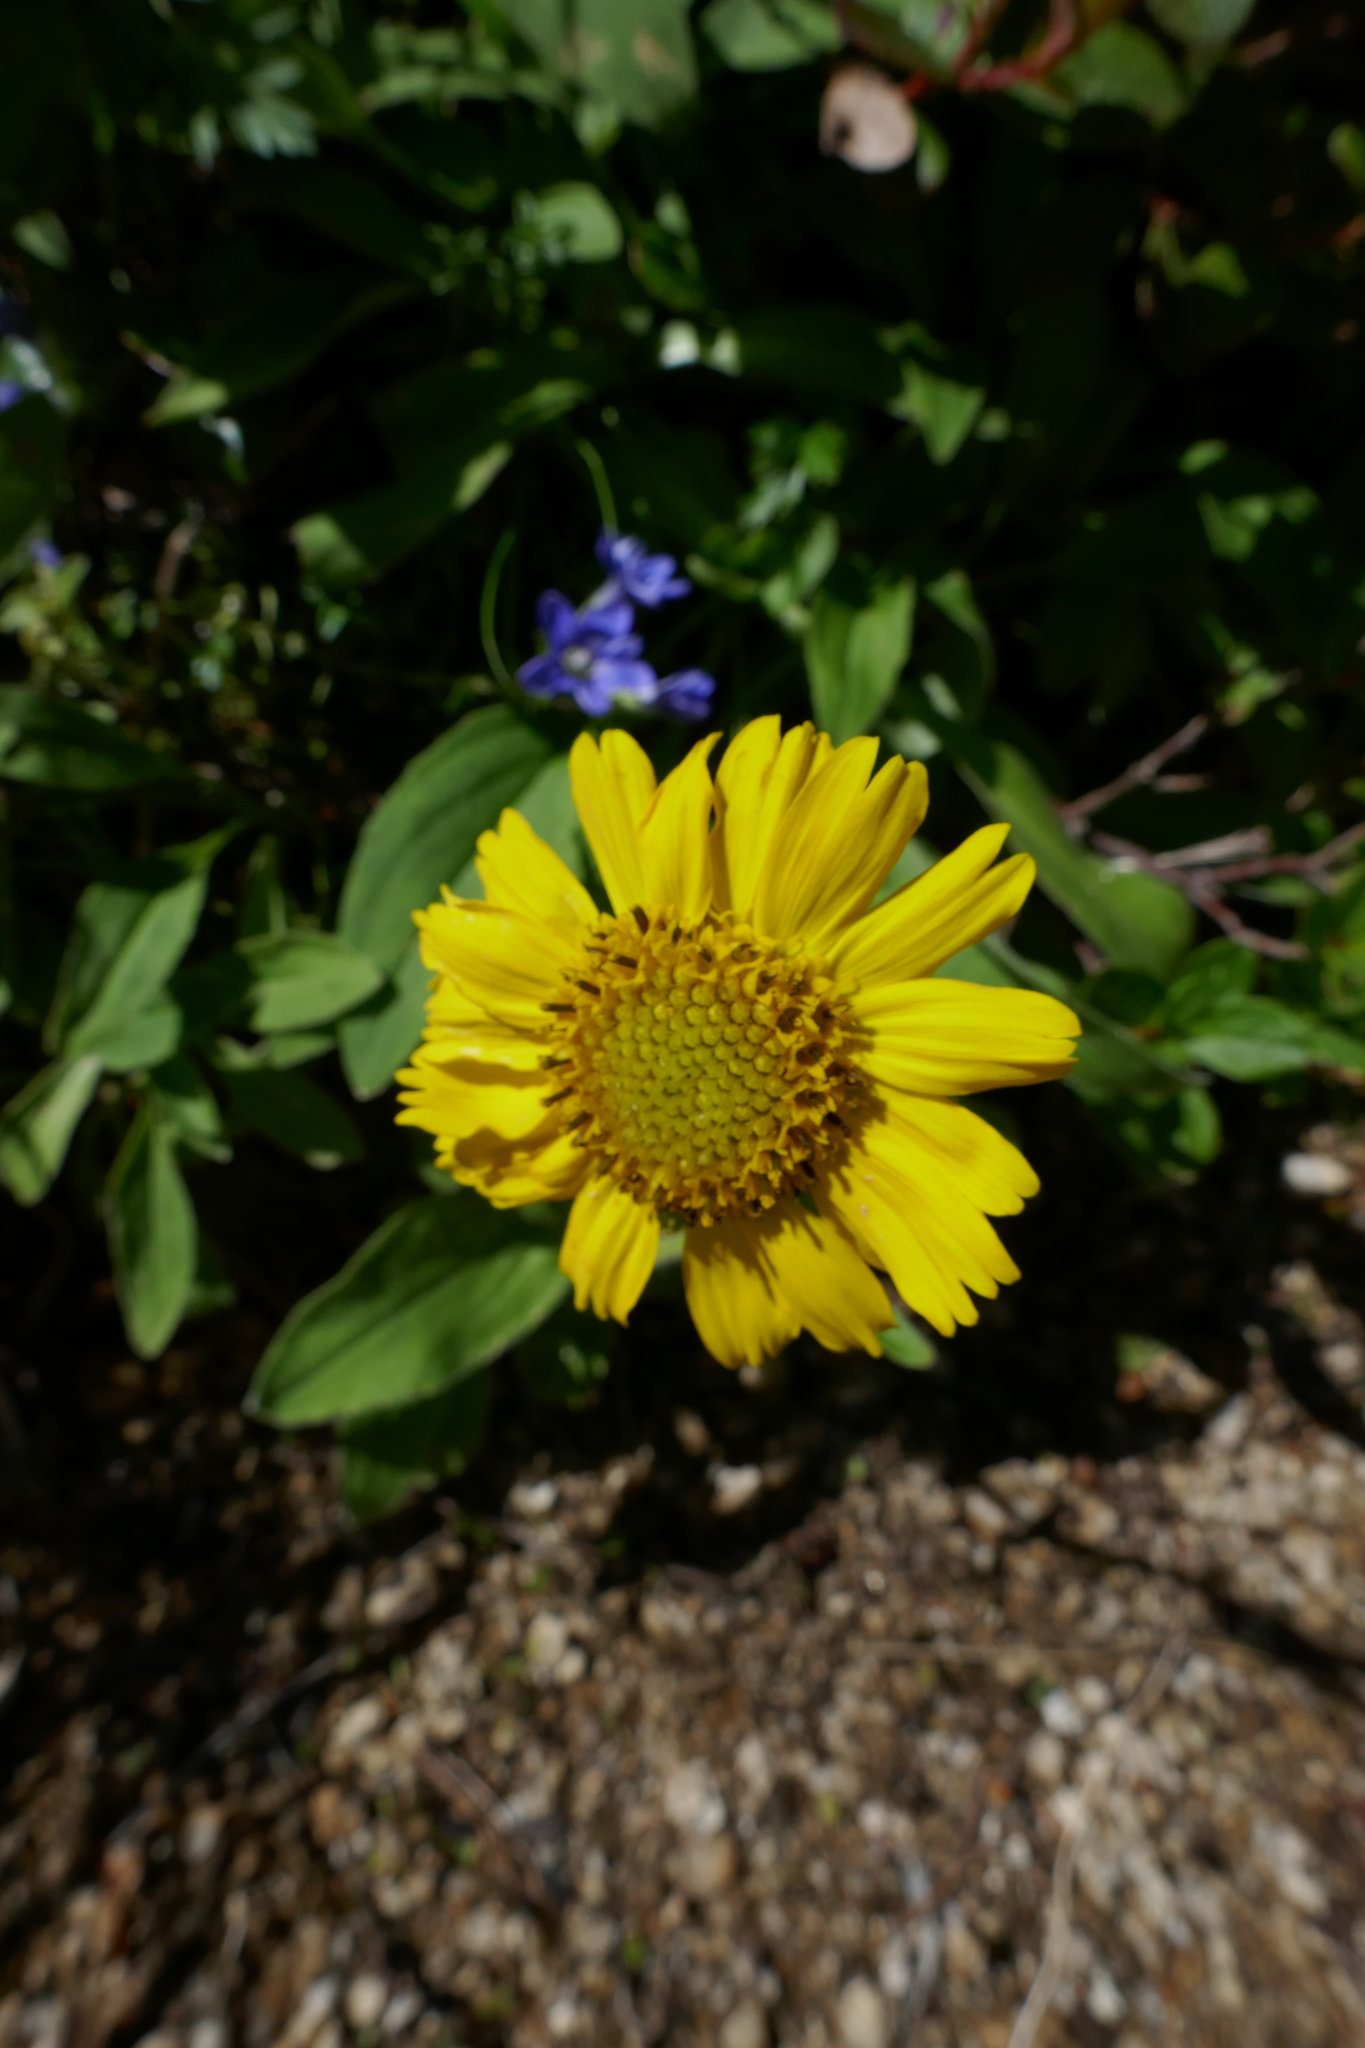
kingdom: Plantae
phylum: Tracheophyta
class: Magnoliopsida
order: Asterales
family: Asteraceae
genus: Arnica
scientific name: Arnica unalascensis
